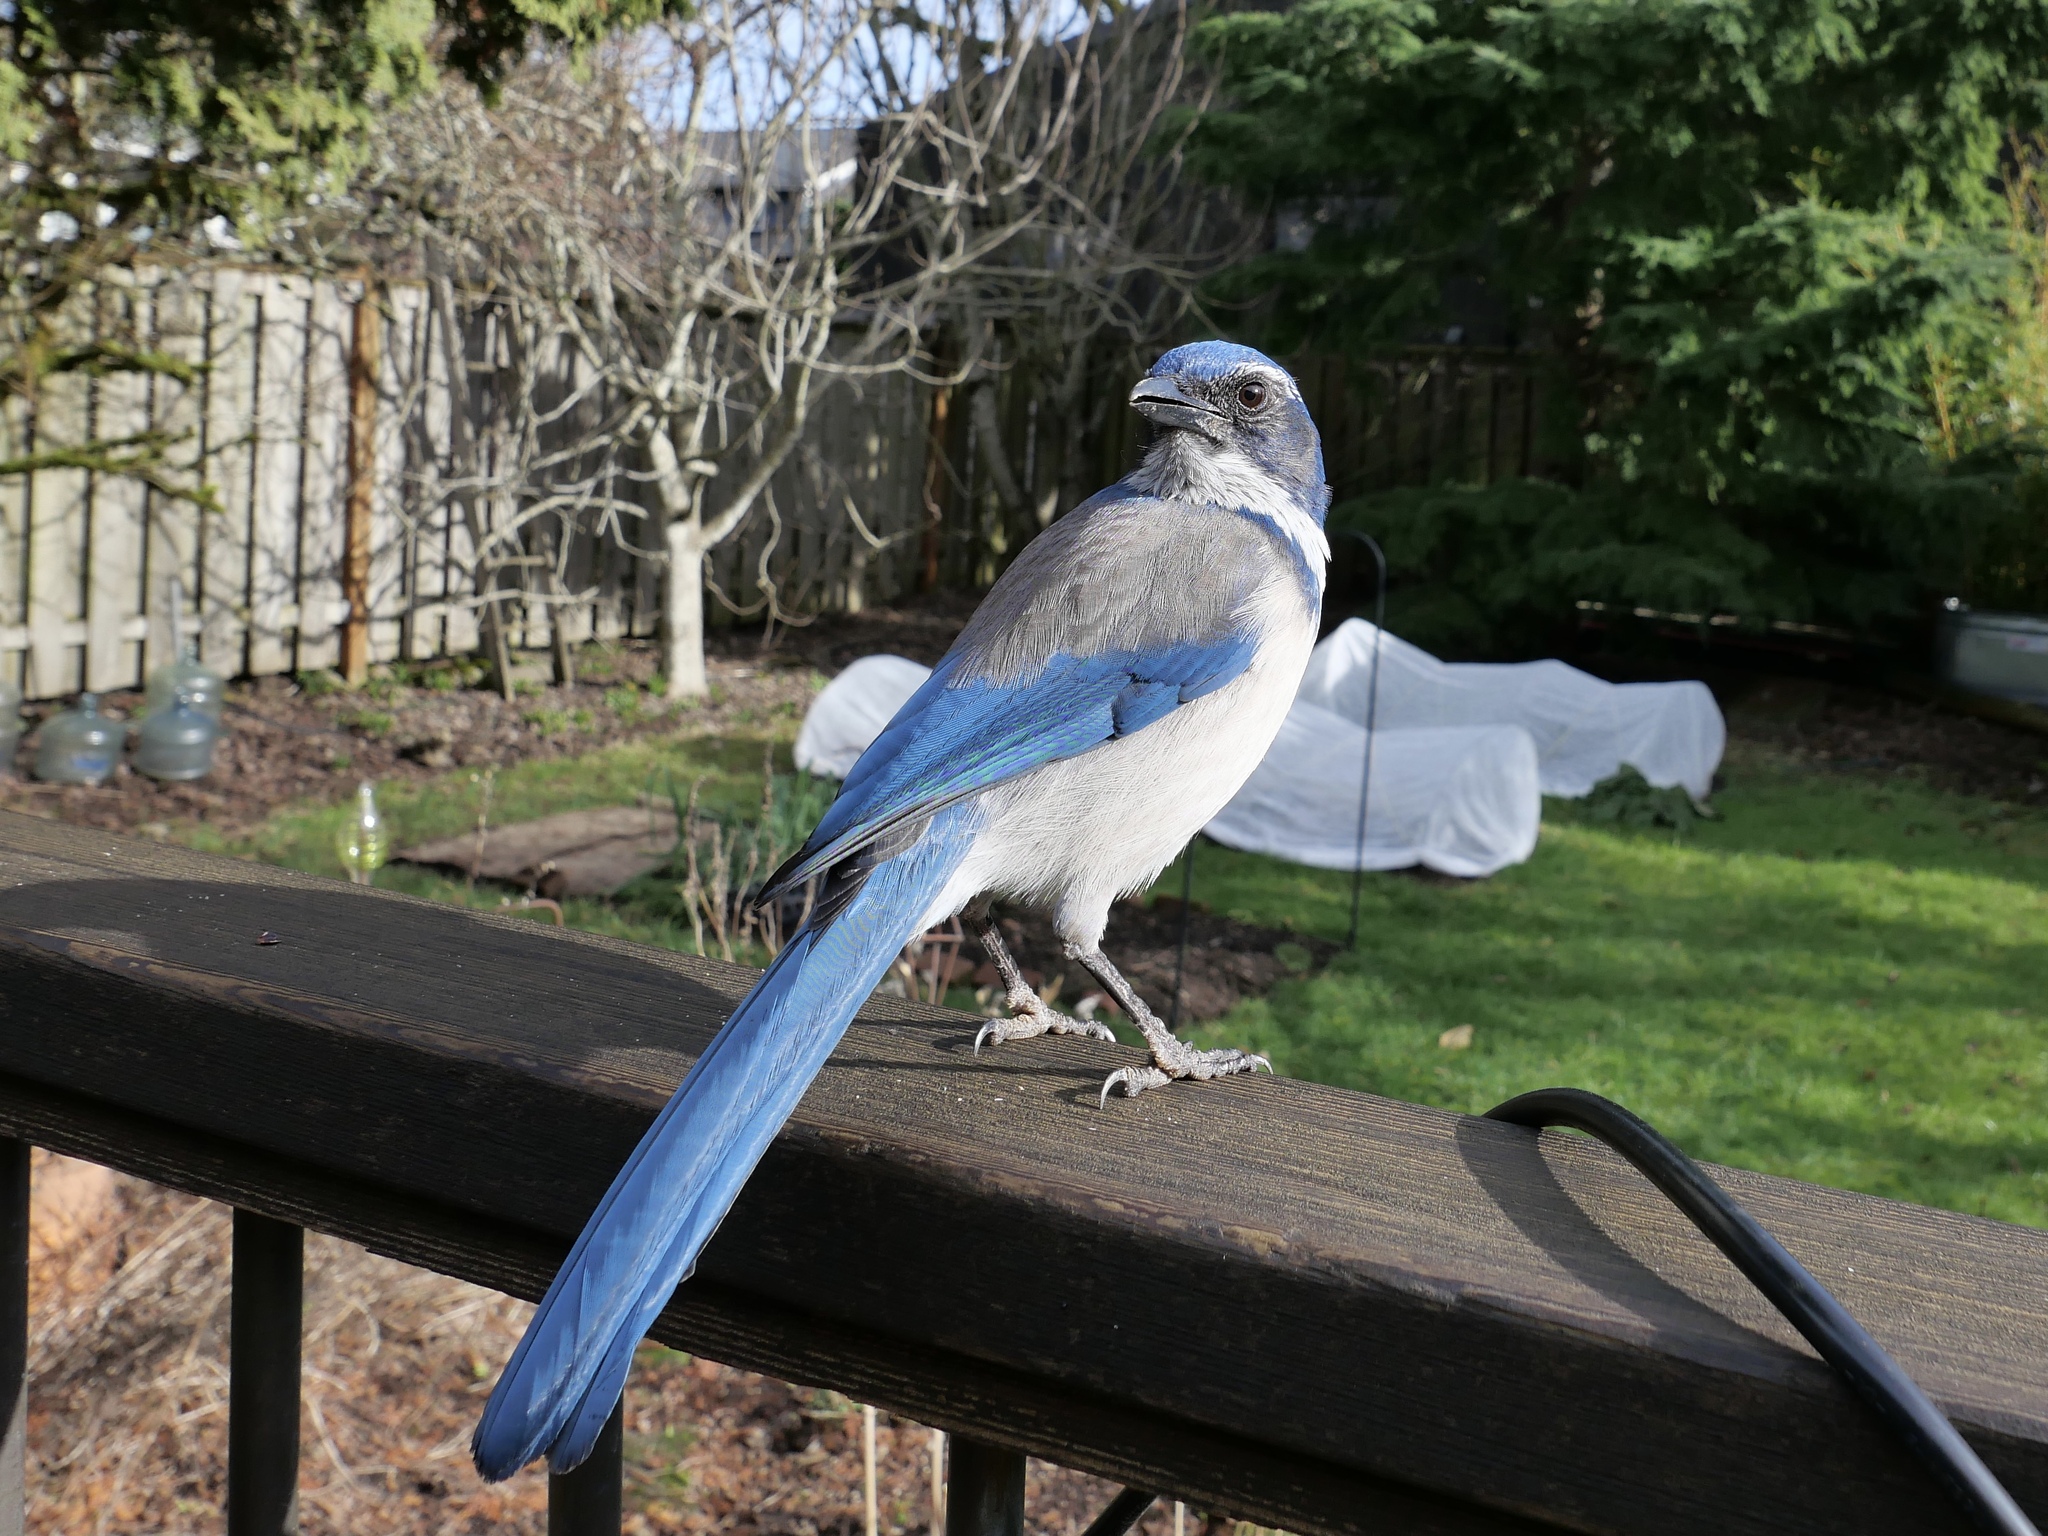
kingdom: Animalia
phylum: Chordata
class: Aves
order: Passeriformes
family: Corvidae
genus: Aphelocoma
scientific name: Aphelocoma californica
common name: California scrub-jay
